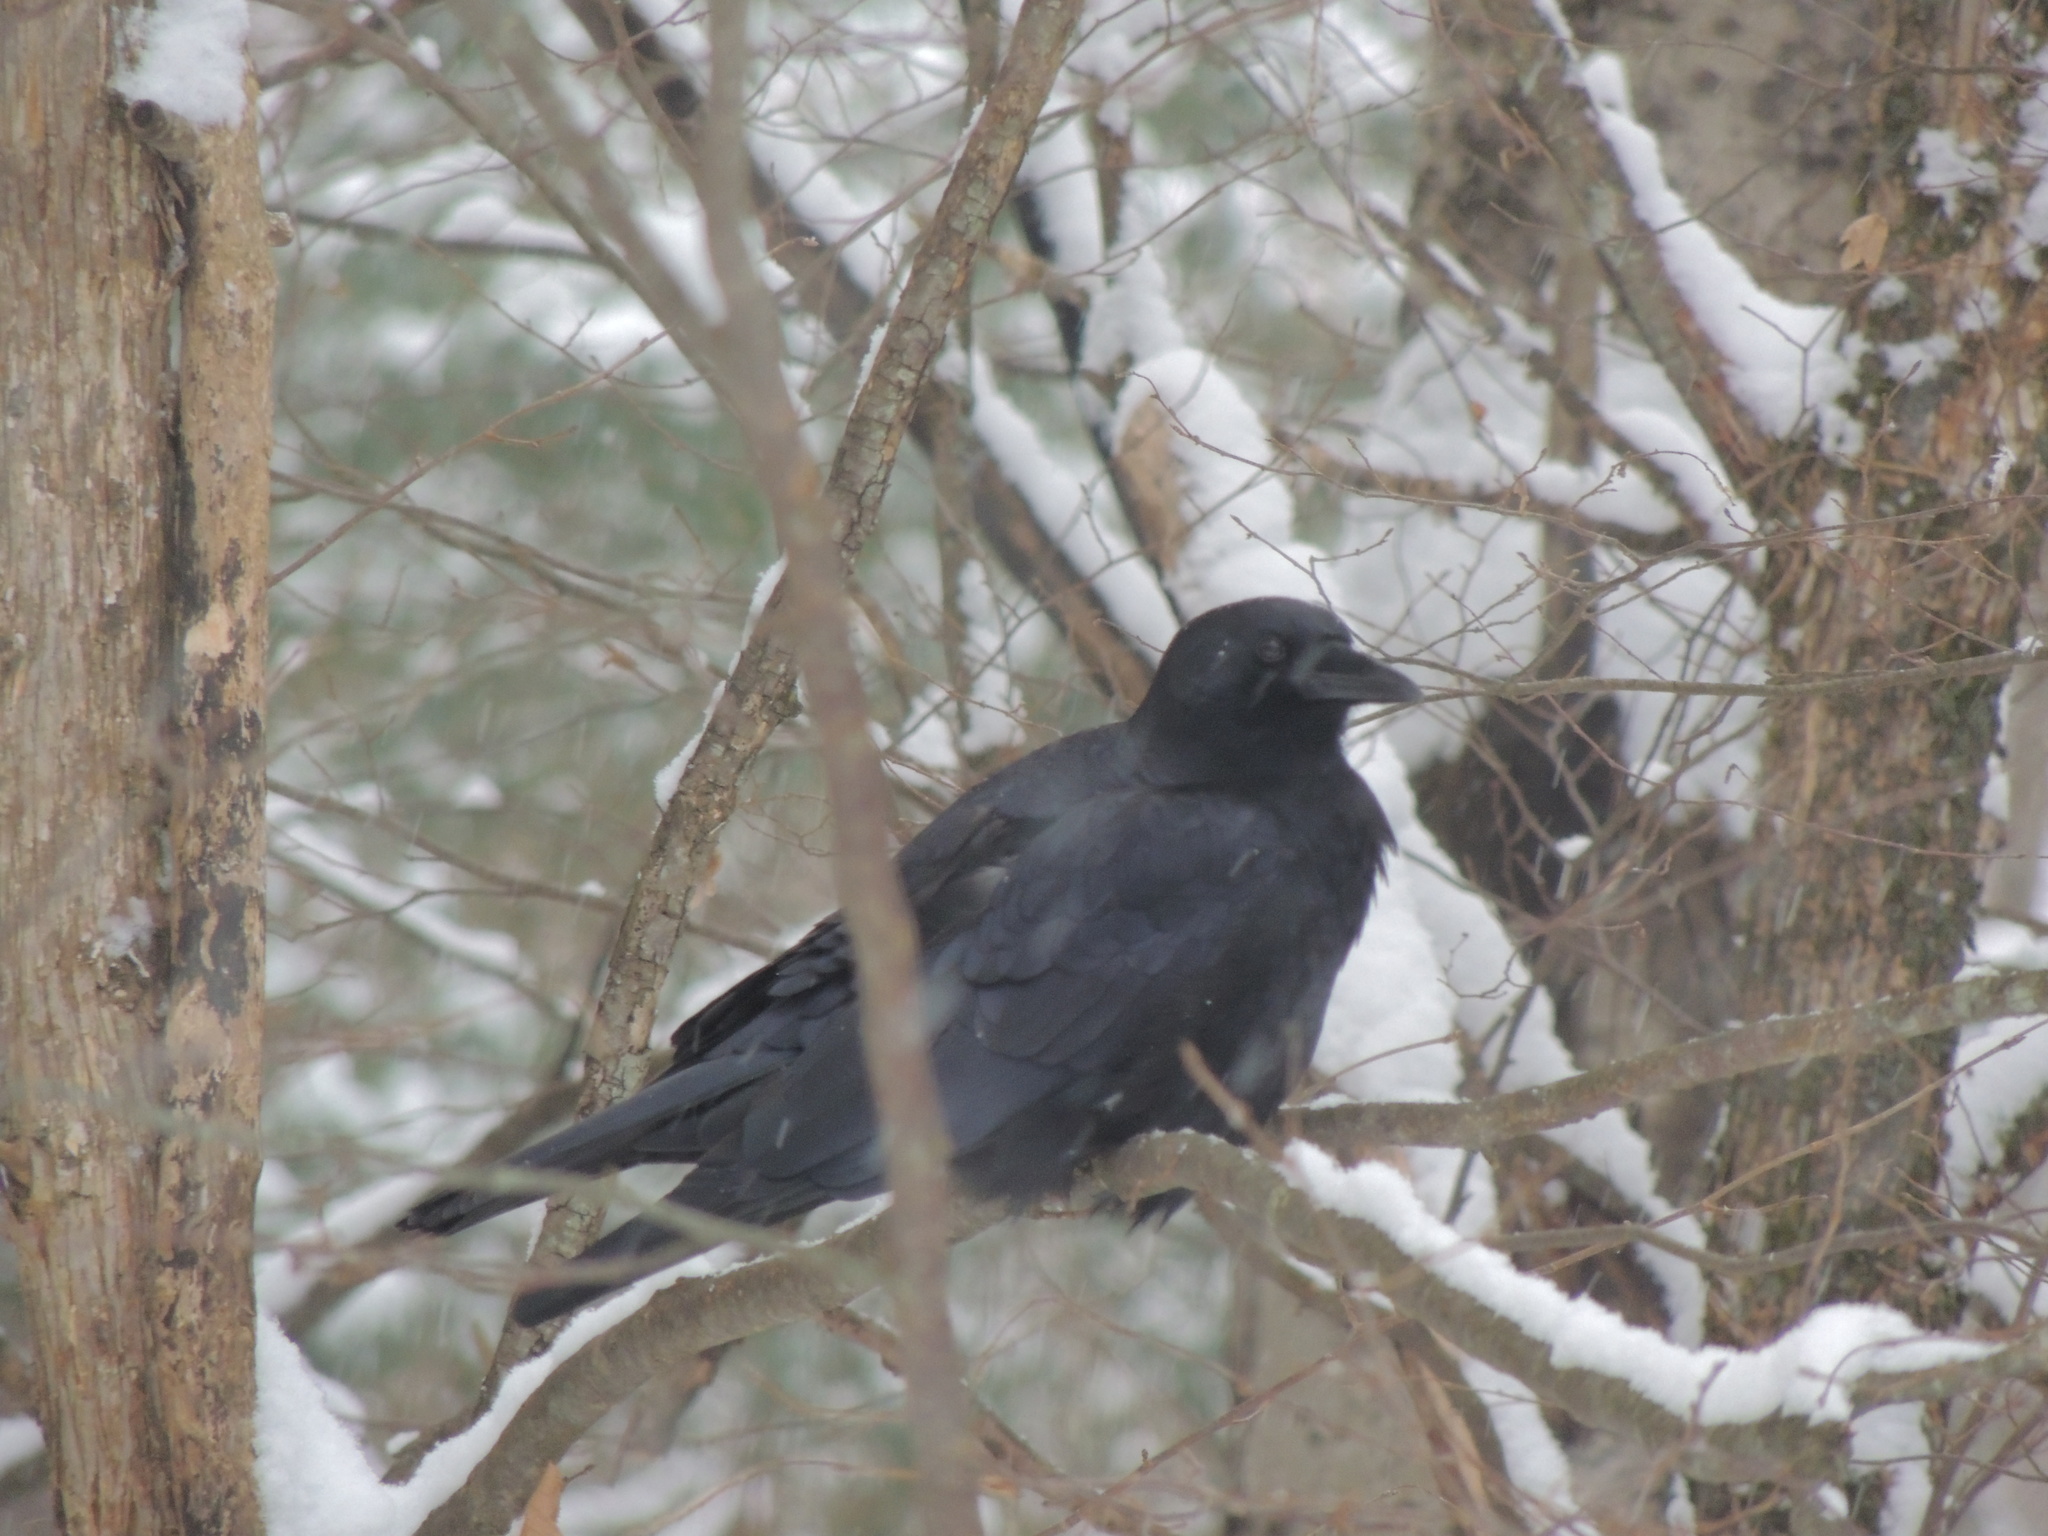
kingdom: Animalia
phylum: Chordata
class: Aves
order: Passeriformes
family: Corvidae
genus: Corvus
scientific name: Corvus brachyrhynchos
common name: American crow
